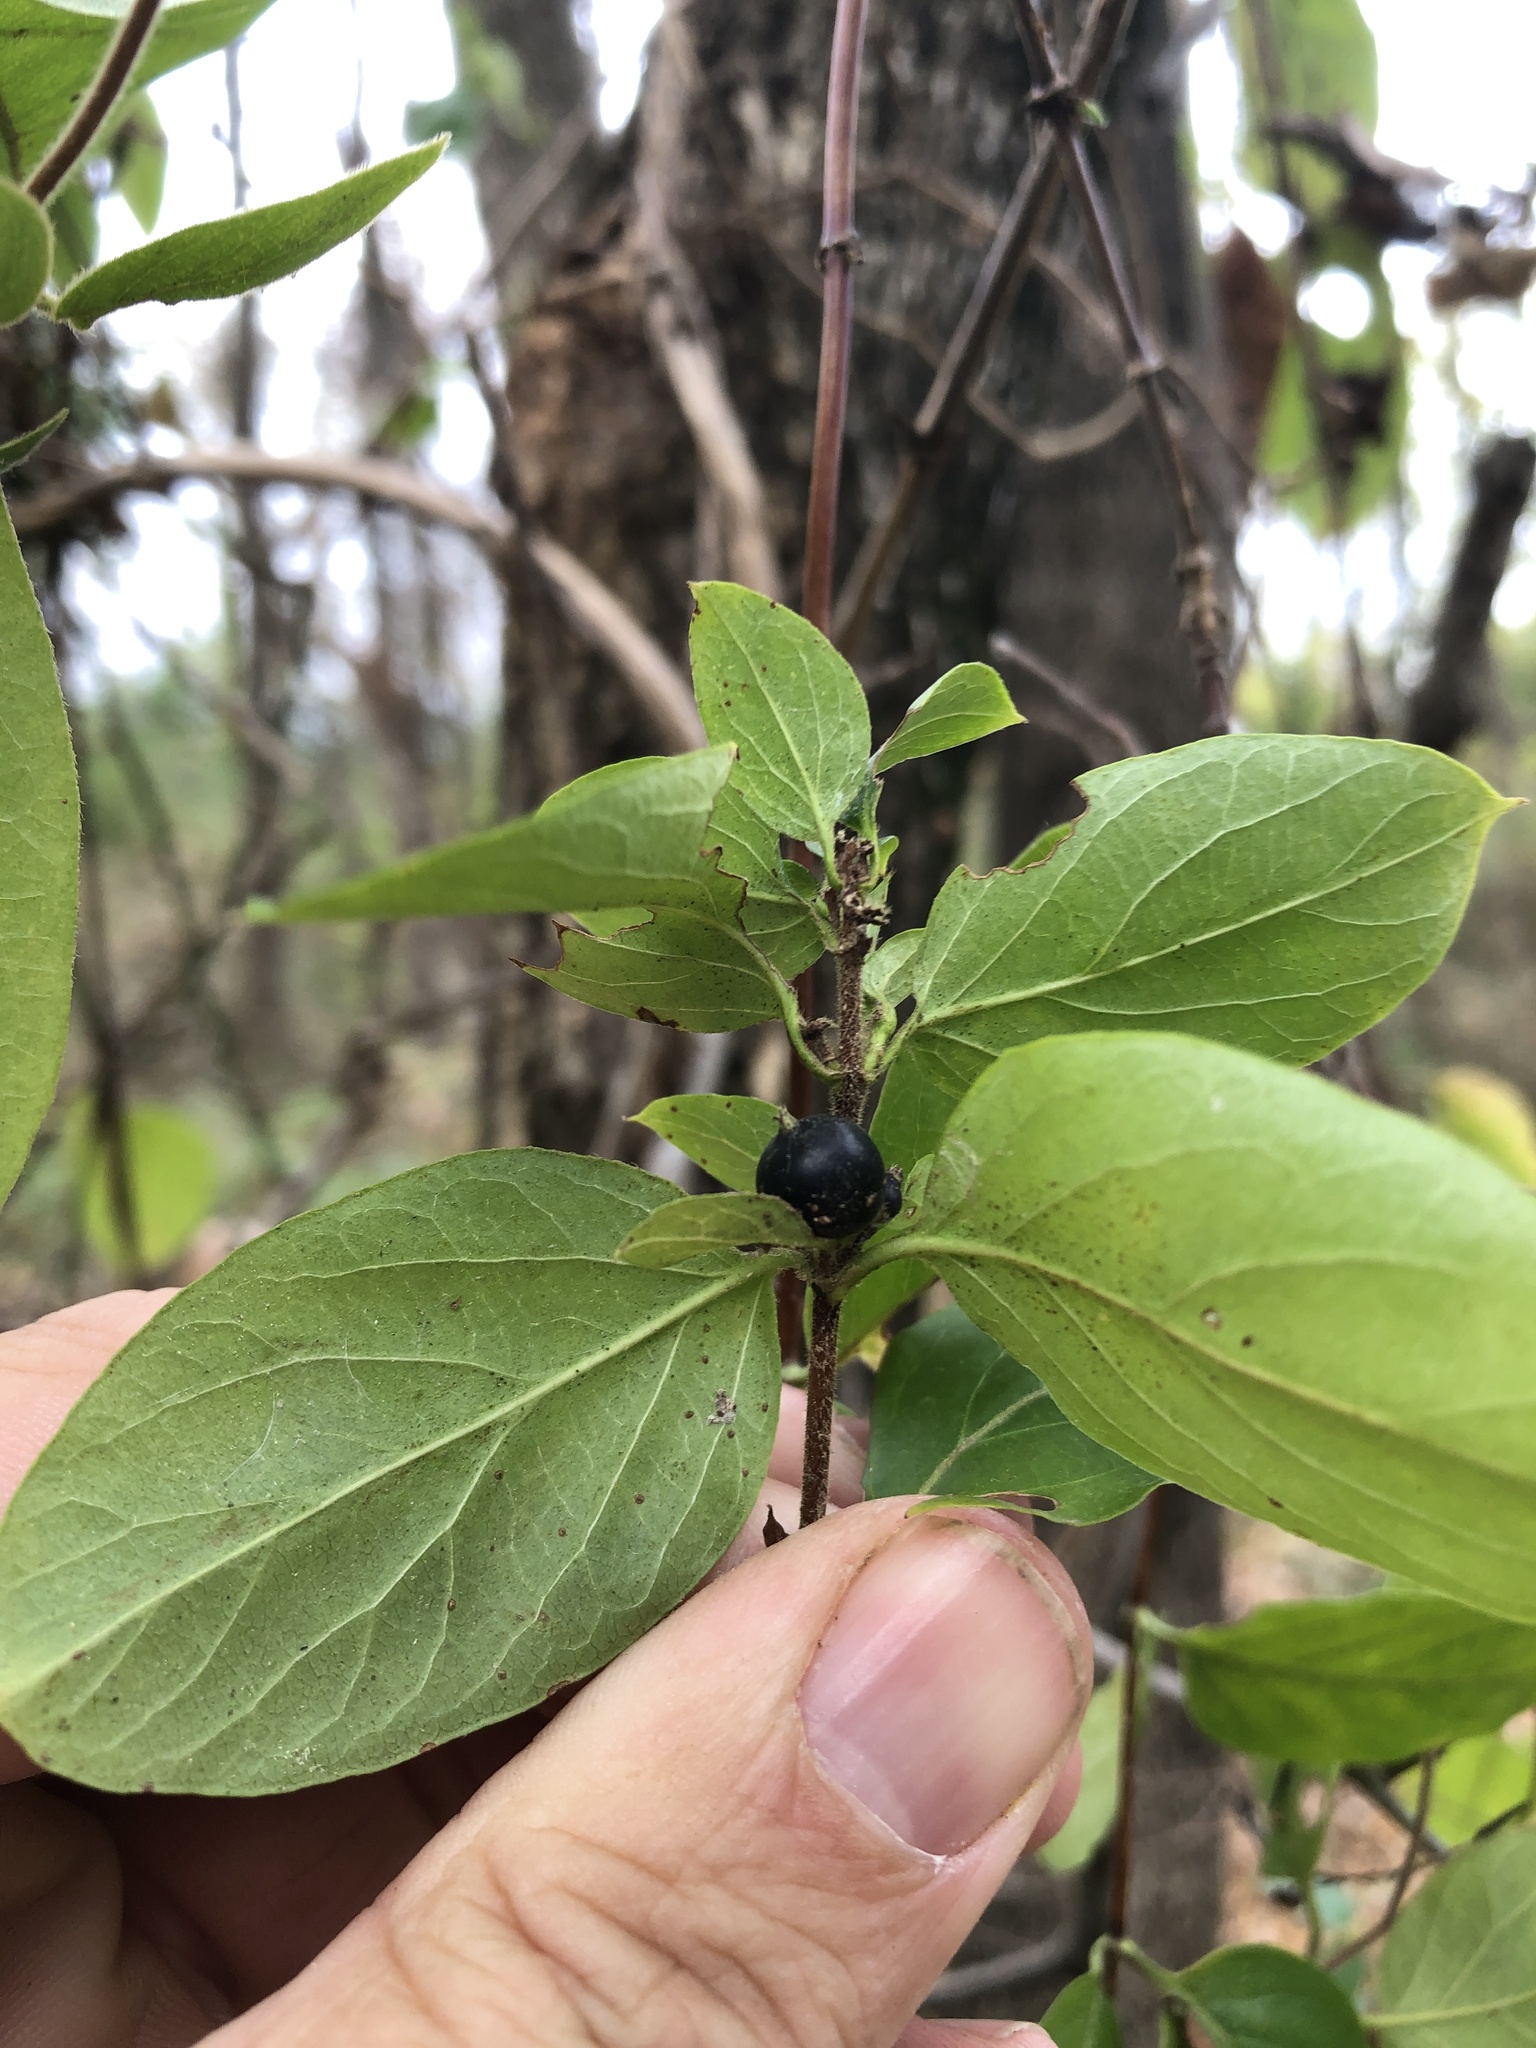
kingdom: Plantae
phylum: Tracheophyta
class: Magnoliopsida
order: Dipsacales
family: Caprifoliaceae
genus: Lonicera
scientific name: Lonicera japonica
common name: Japanese honeysuckle
